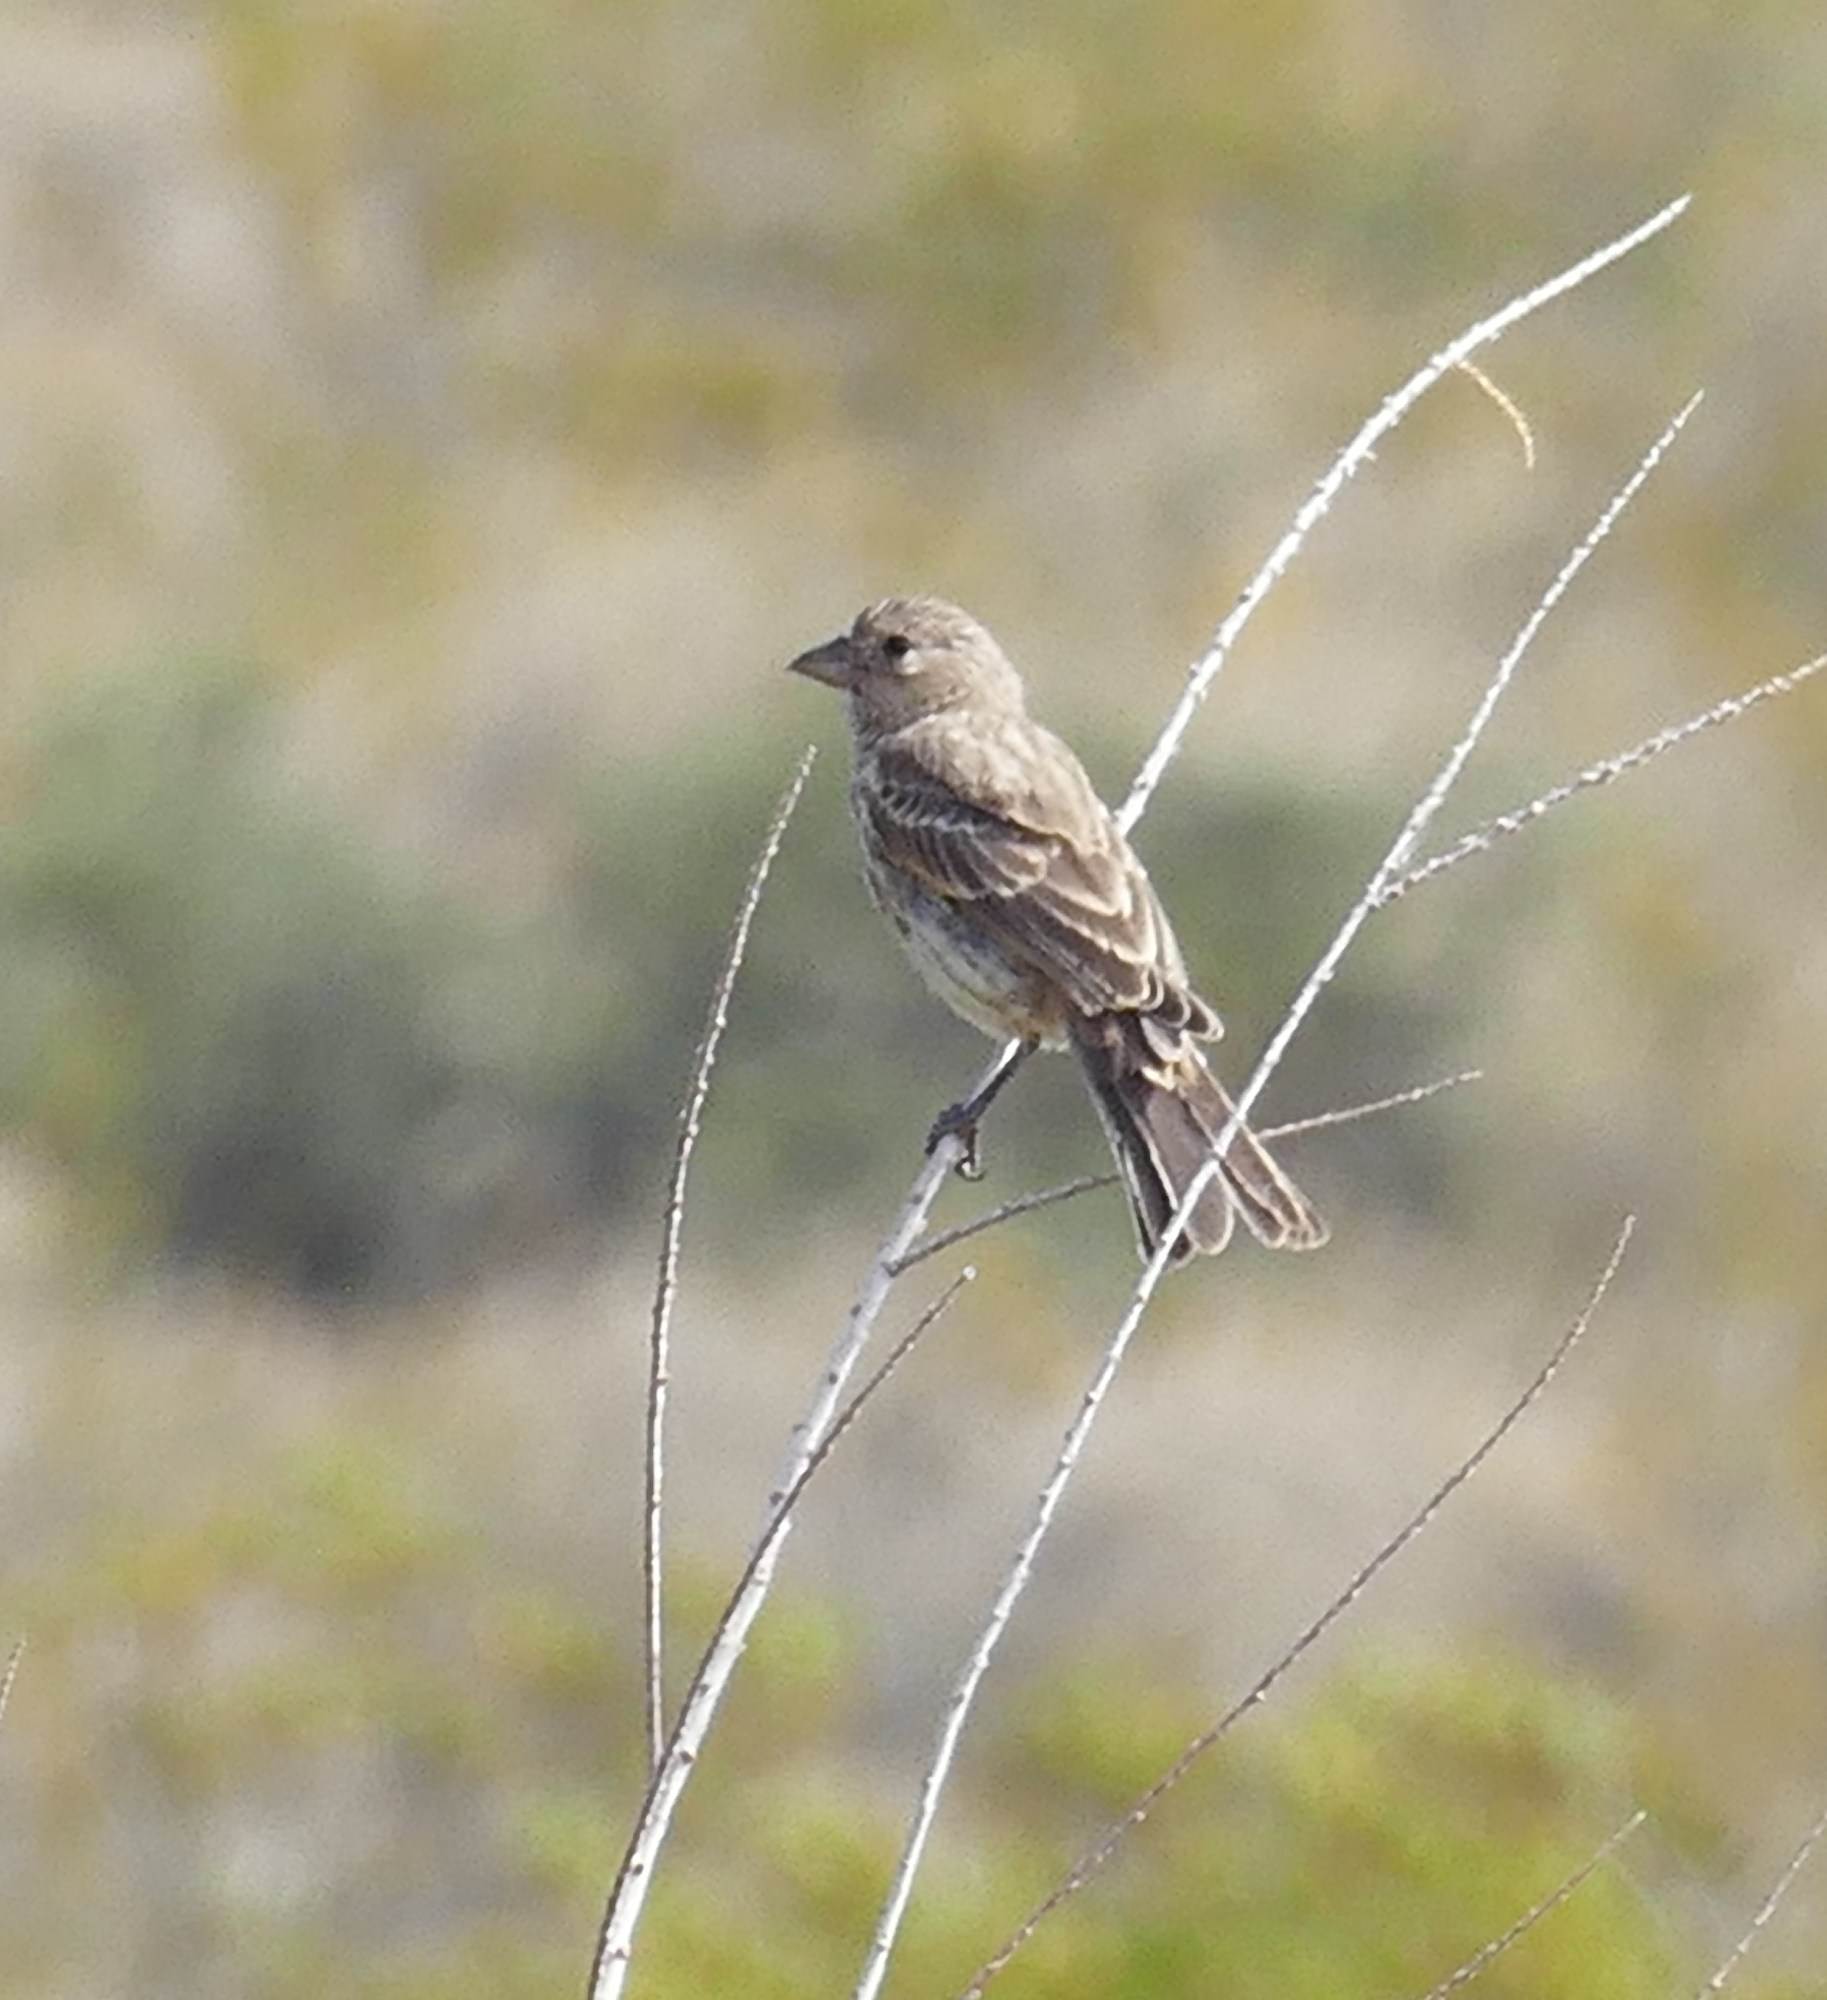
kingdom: Animalia
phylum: Chordata
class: Aves
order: Passeriformes
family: Fringillidae
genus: Haemorhous
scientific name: Haemorhous mexicanus
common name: House finch
